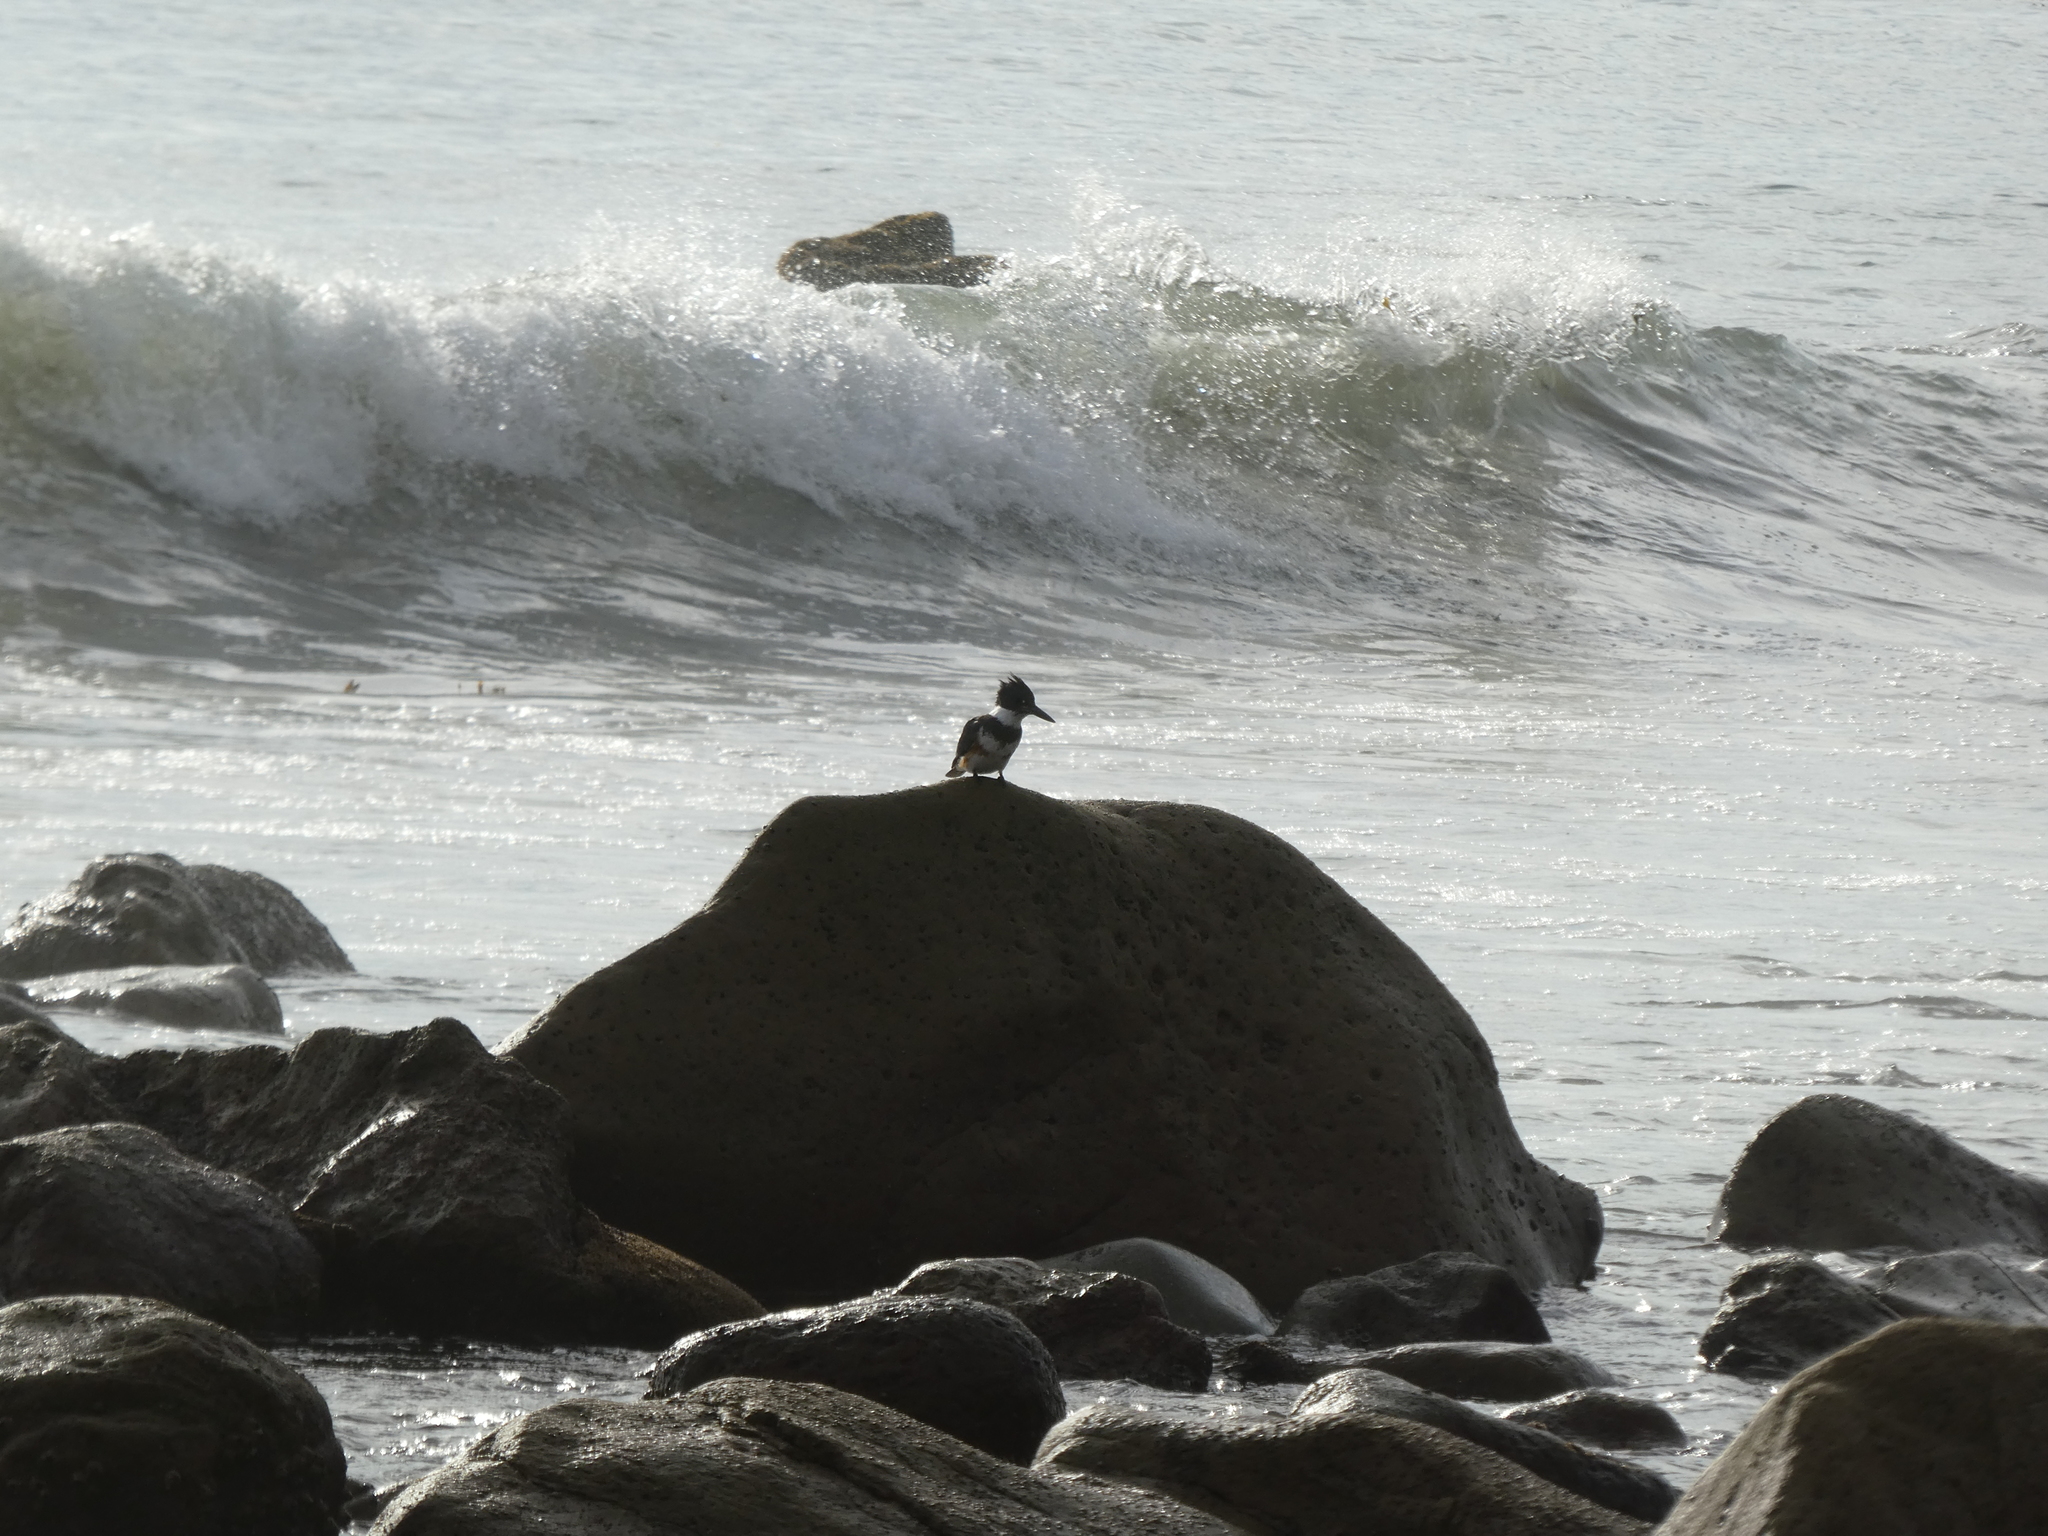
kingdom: Animalia
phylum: Chordata
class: Aves
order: Coraciiformes
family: Alcedinidae
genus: Megaceryle
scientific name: Megaceryle alcyon
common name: Belted kingfisher
